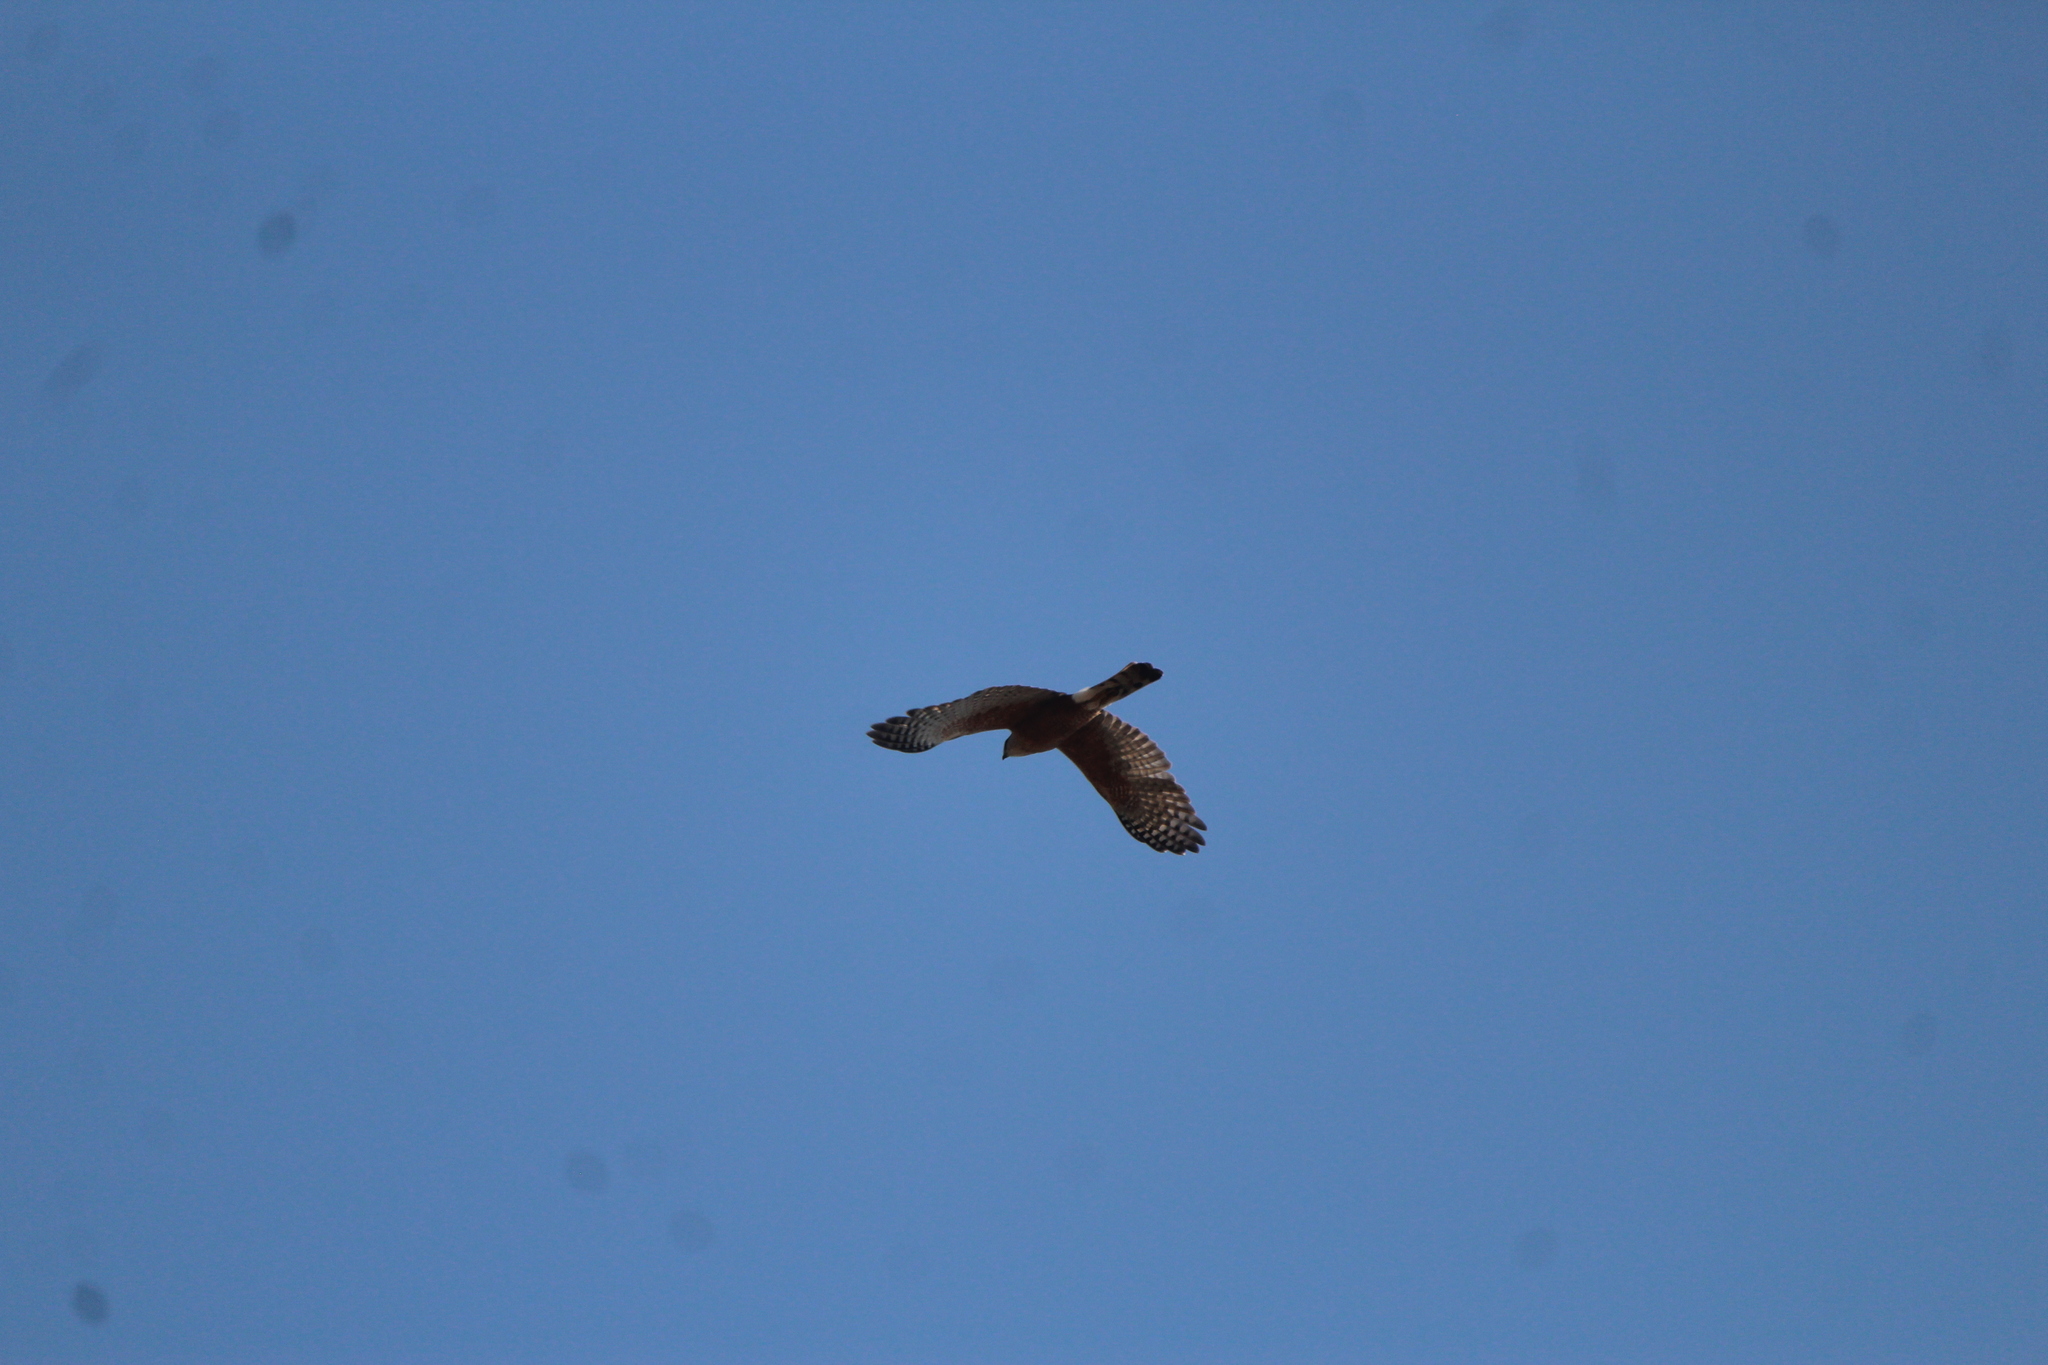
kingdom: Animalia
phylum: Chordata
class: Aves
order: Accipitriformes
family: Accipitridae
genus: Accipiter
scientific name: Accipiter cooperii
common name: Cooper's hawk
